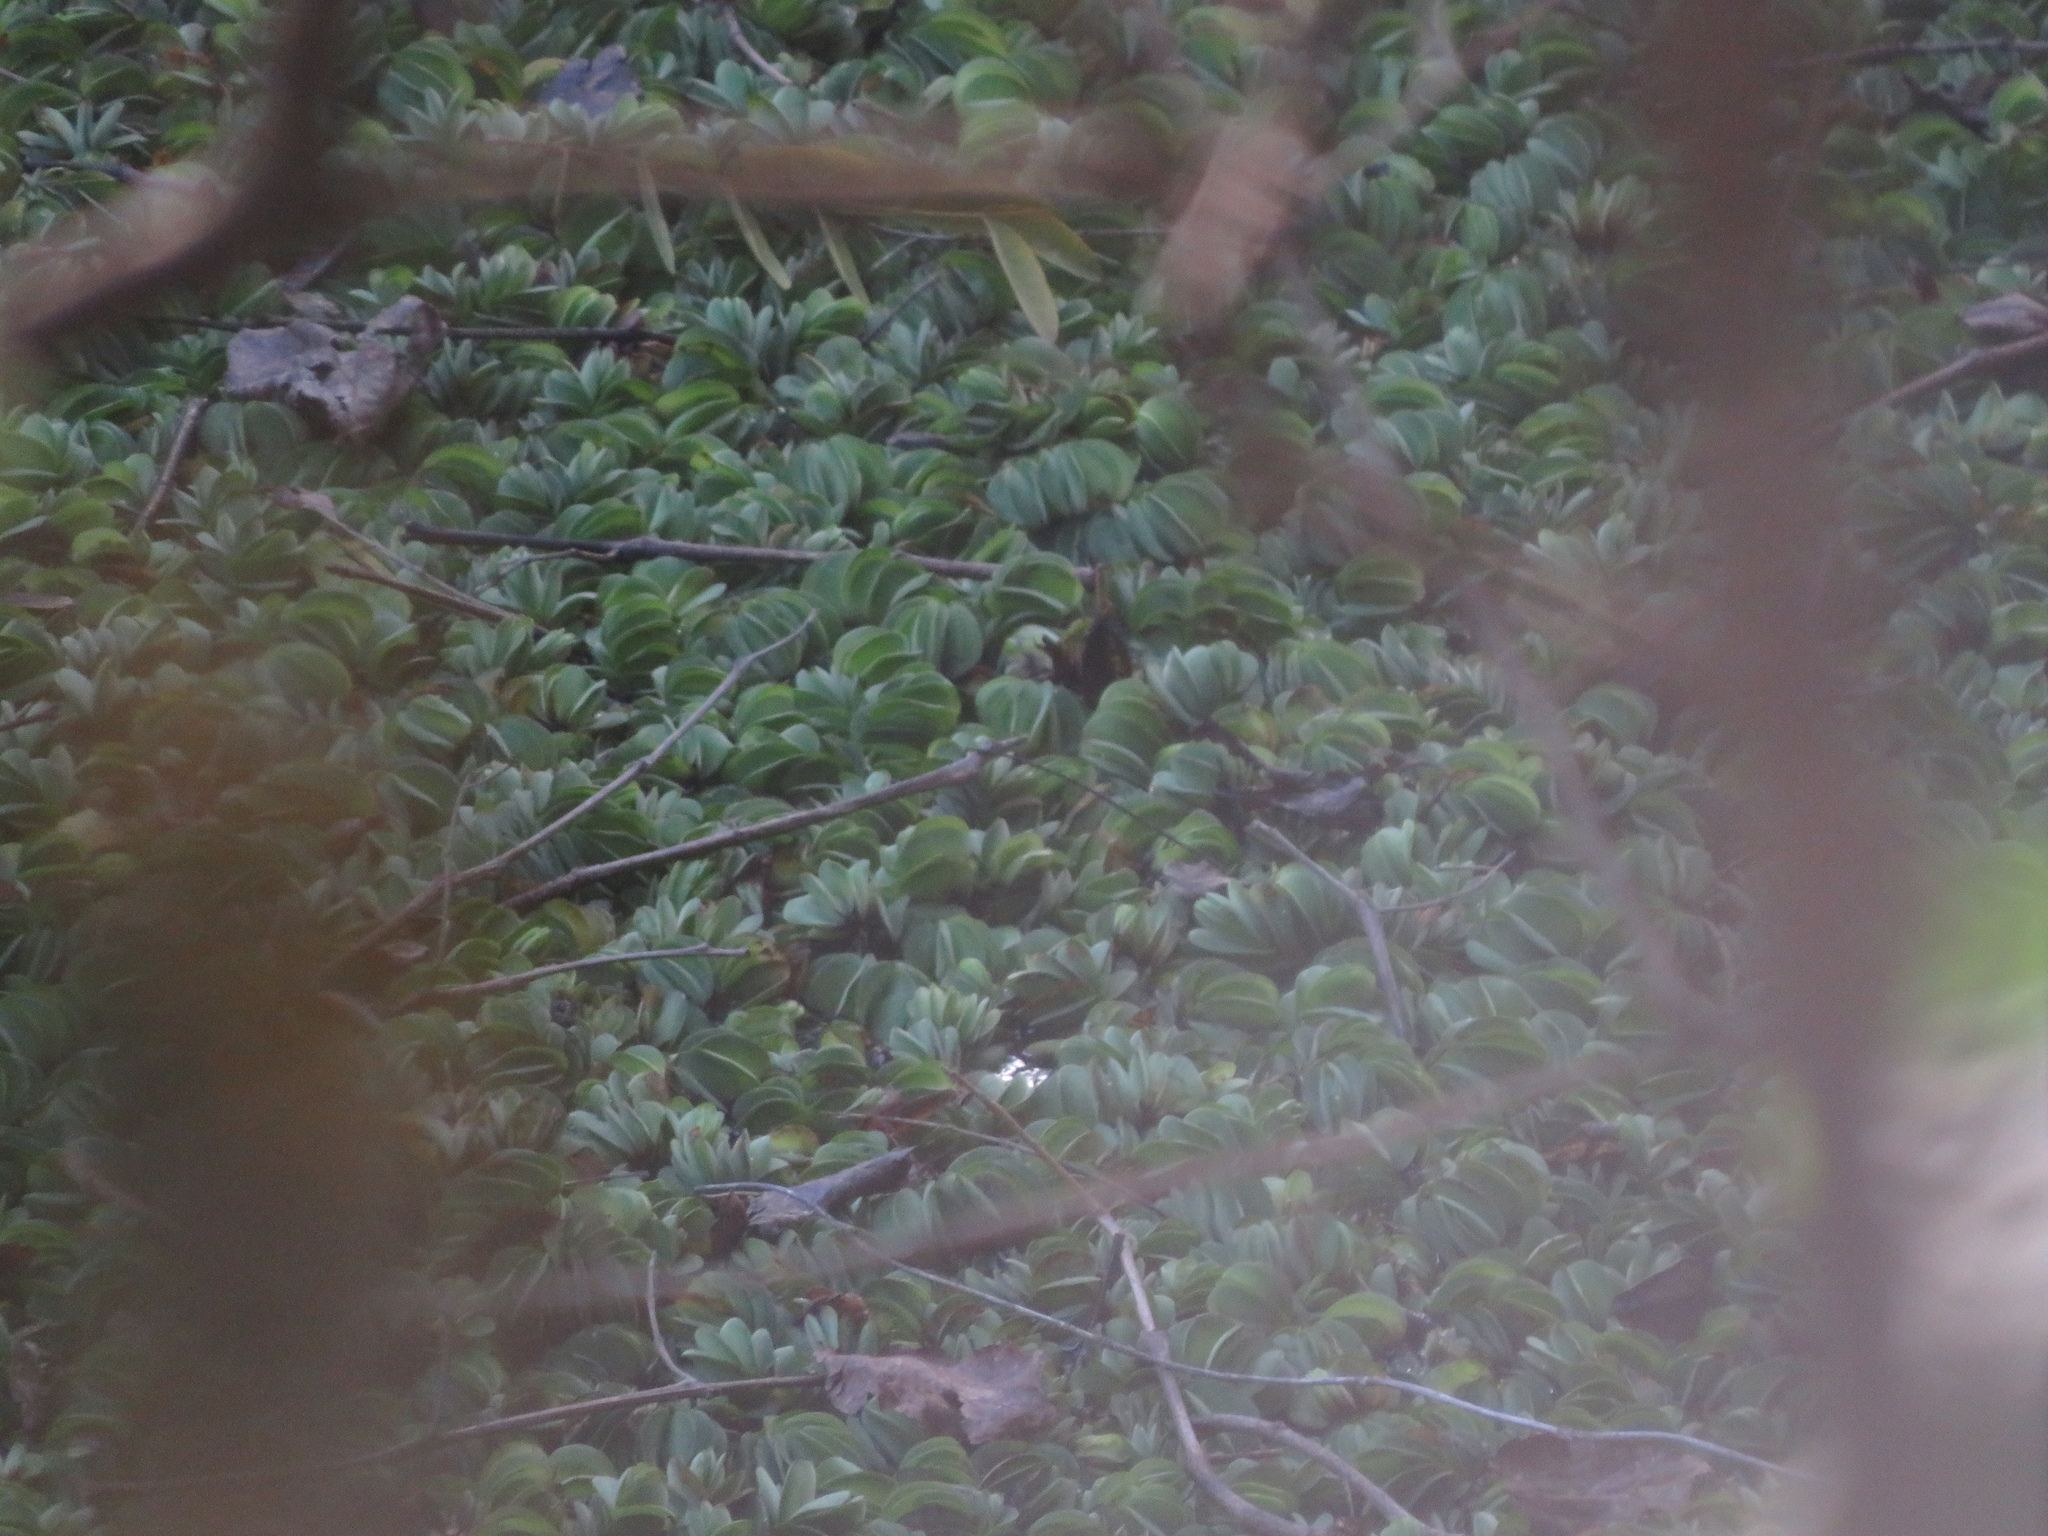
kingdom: Plantae
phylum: Tracheophyta
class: Polypodiopsida
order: Salviniales
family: Salviniaceae
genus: Salvinia
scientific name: Salvinia biloba
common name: Giant salvinia
